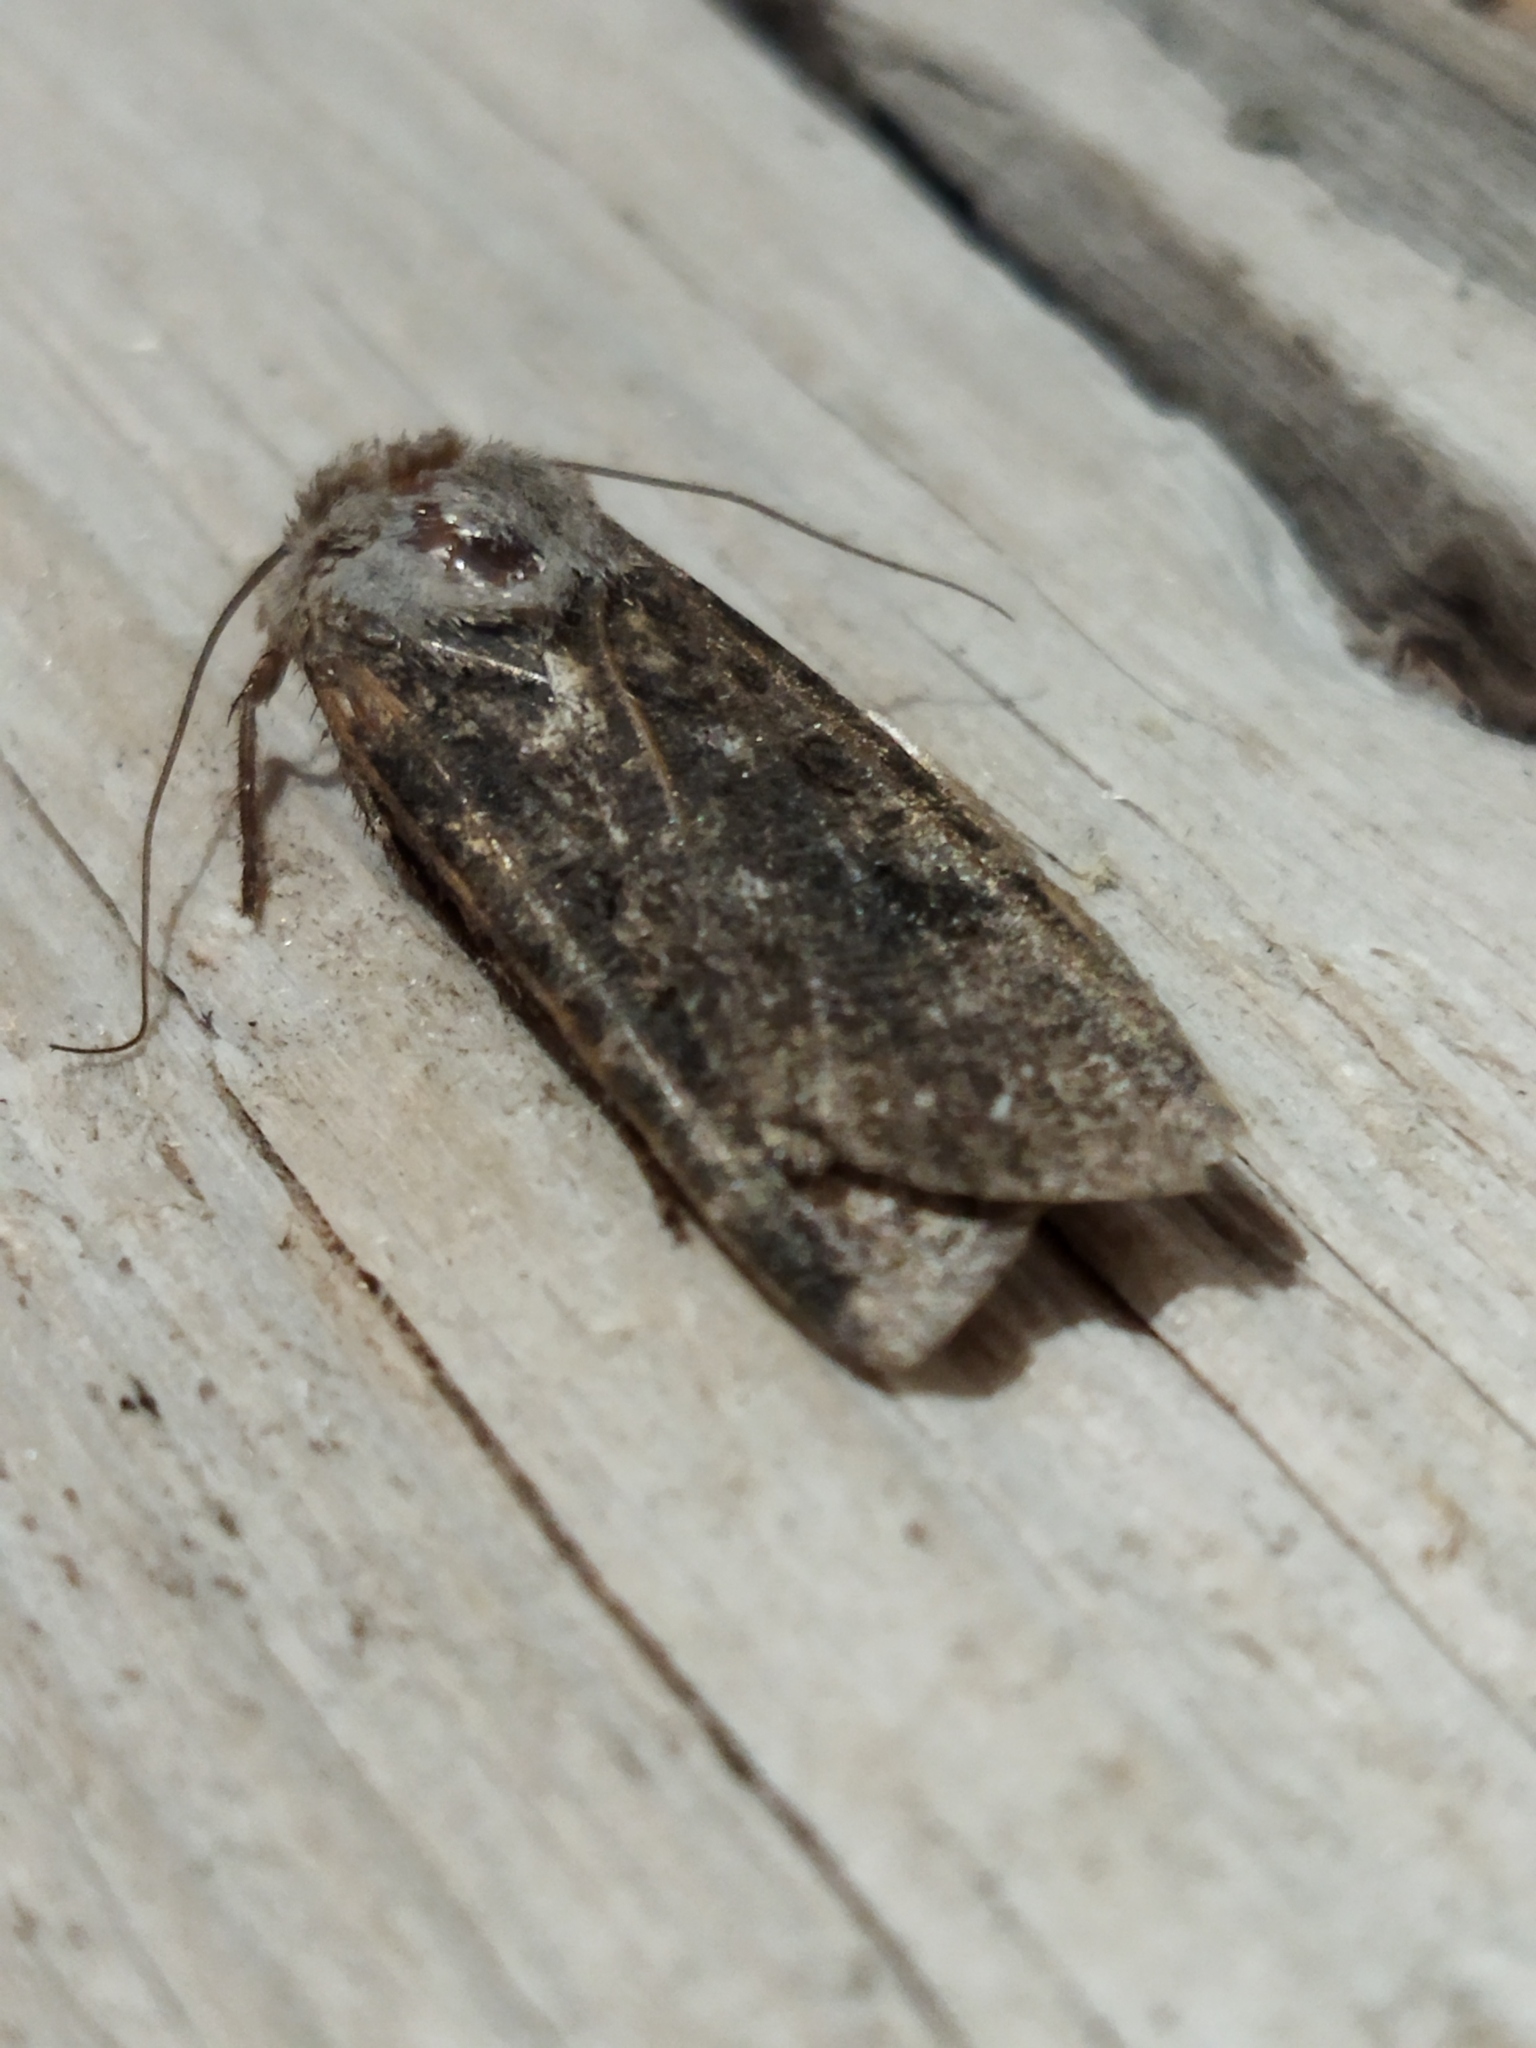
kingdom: Animalia
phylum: Arthropoda
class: Insecta
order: Lepidoptera
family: Noctuidae
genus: Agrotis
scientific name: Agrotis segetum
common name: Turnip moth
